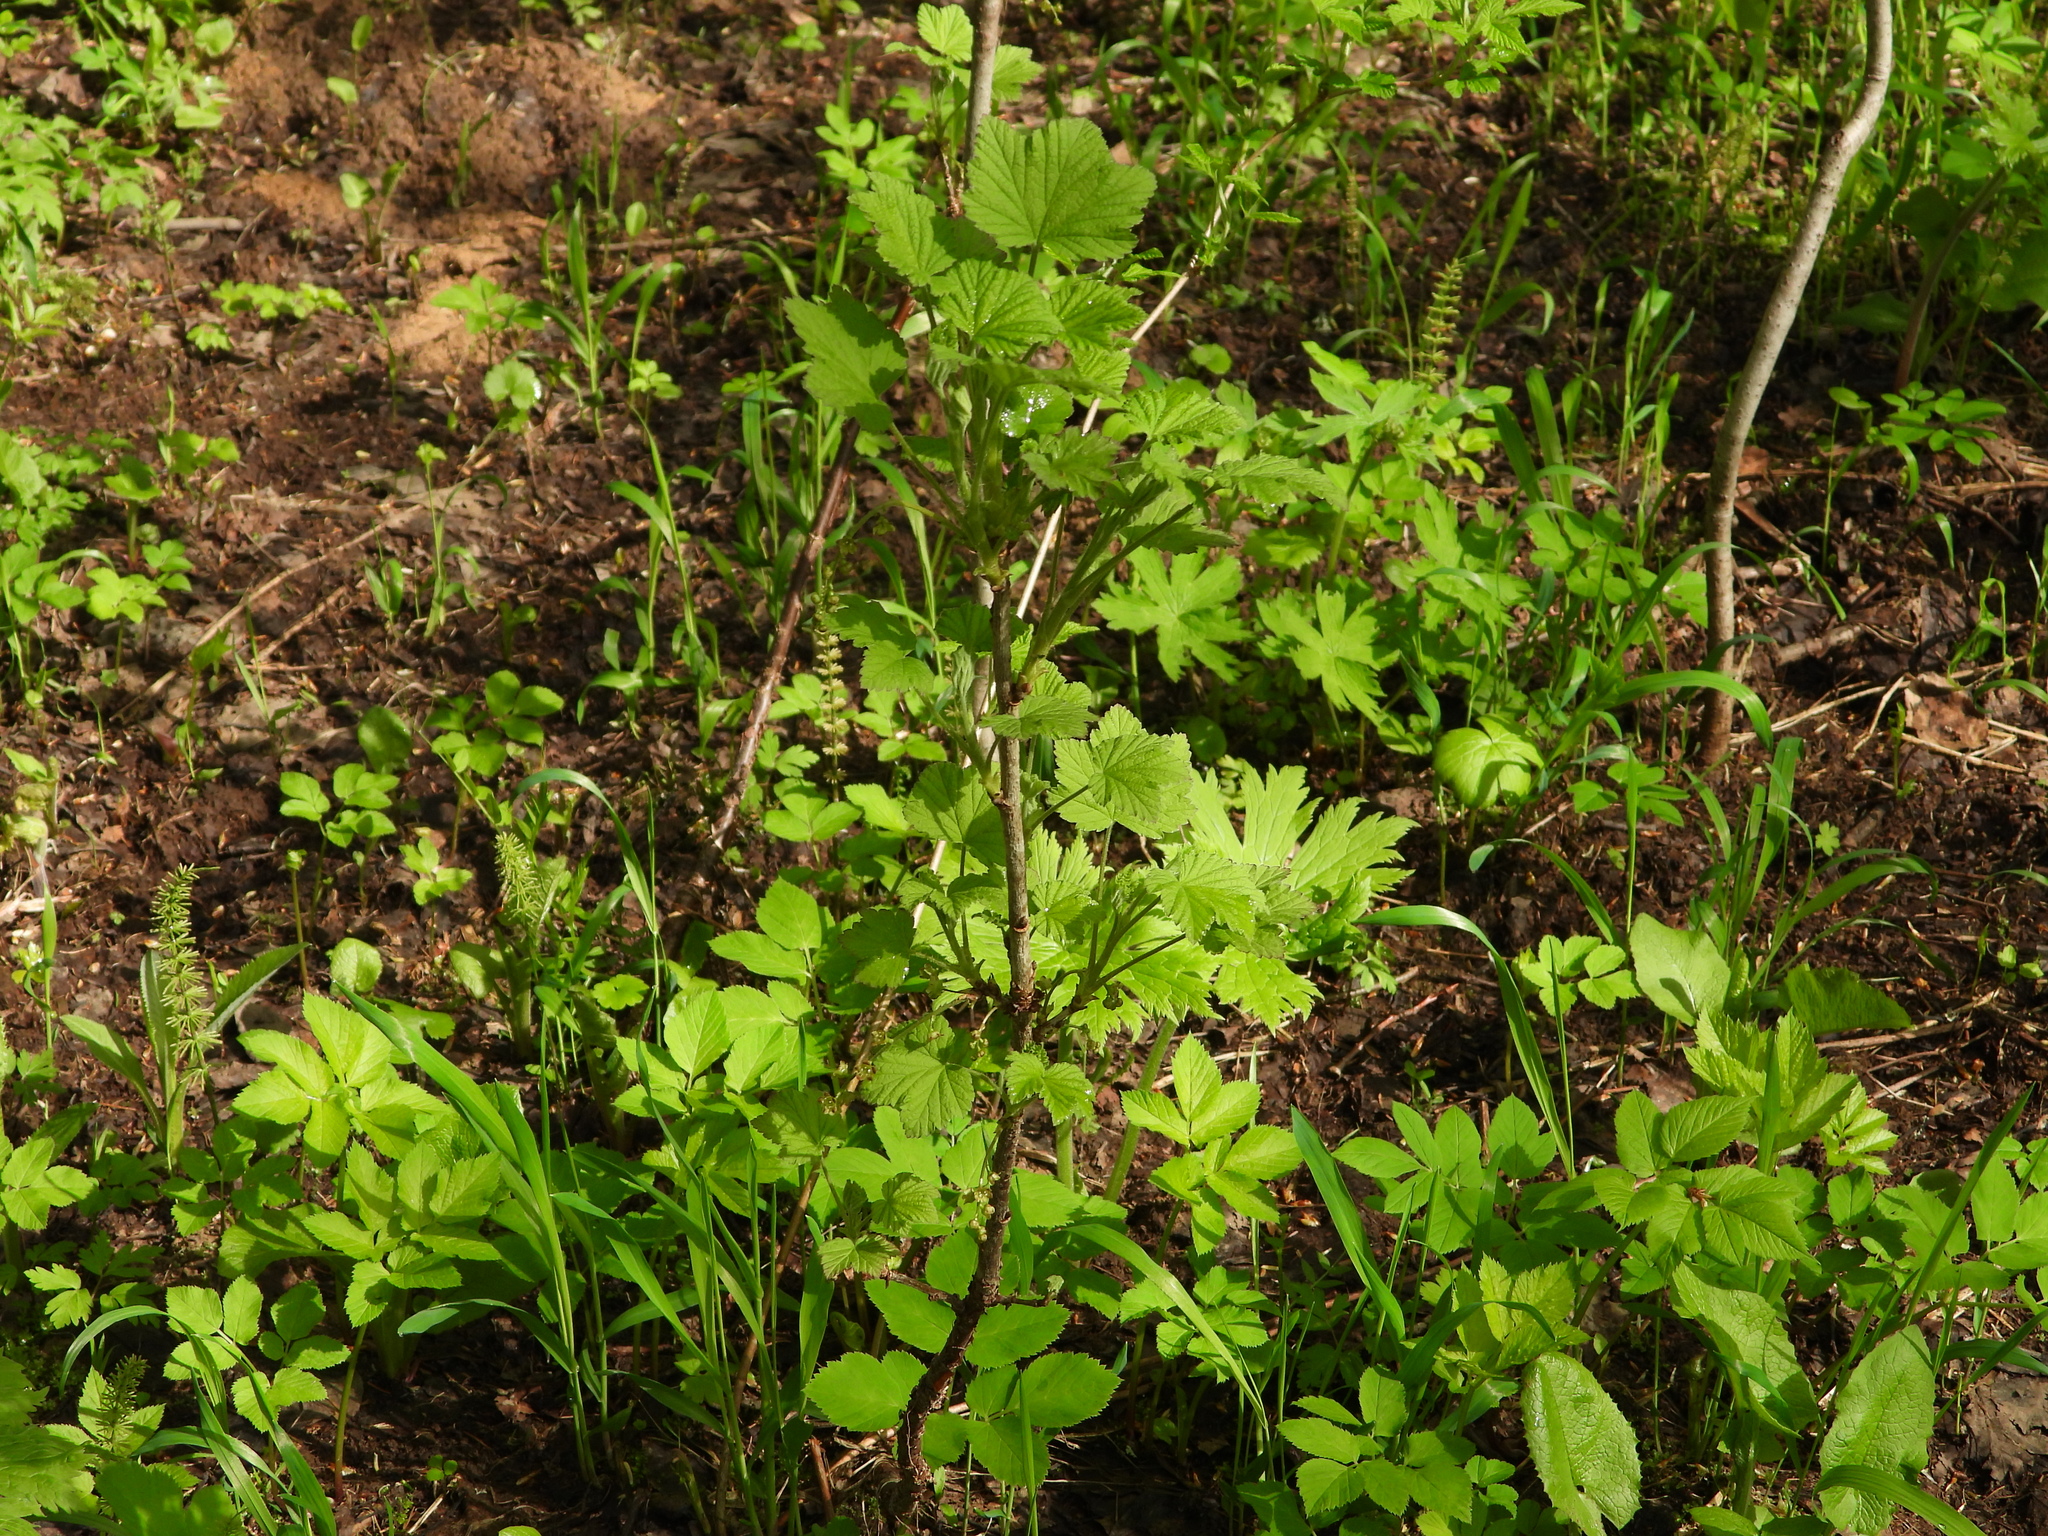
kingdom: Plantae
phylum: Tracheophyta
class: Magnoliopsida
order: Saxifragales
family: Grossulariaceae
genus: Ribes
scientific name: Ribes spicatum
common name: Downy currant
